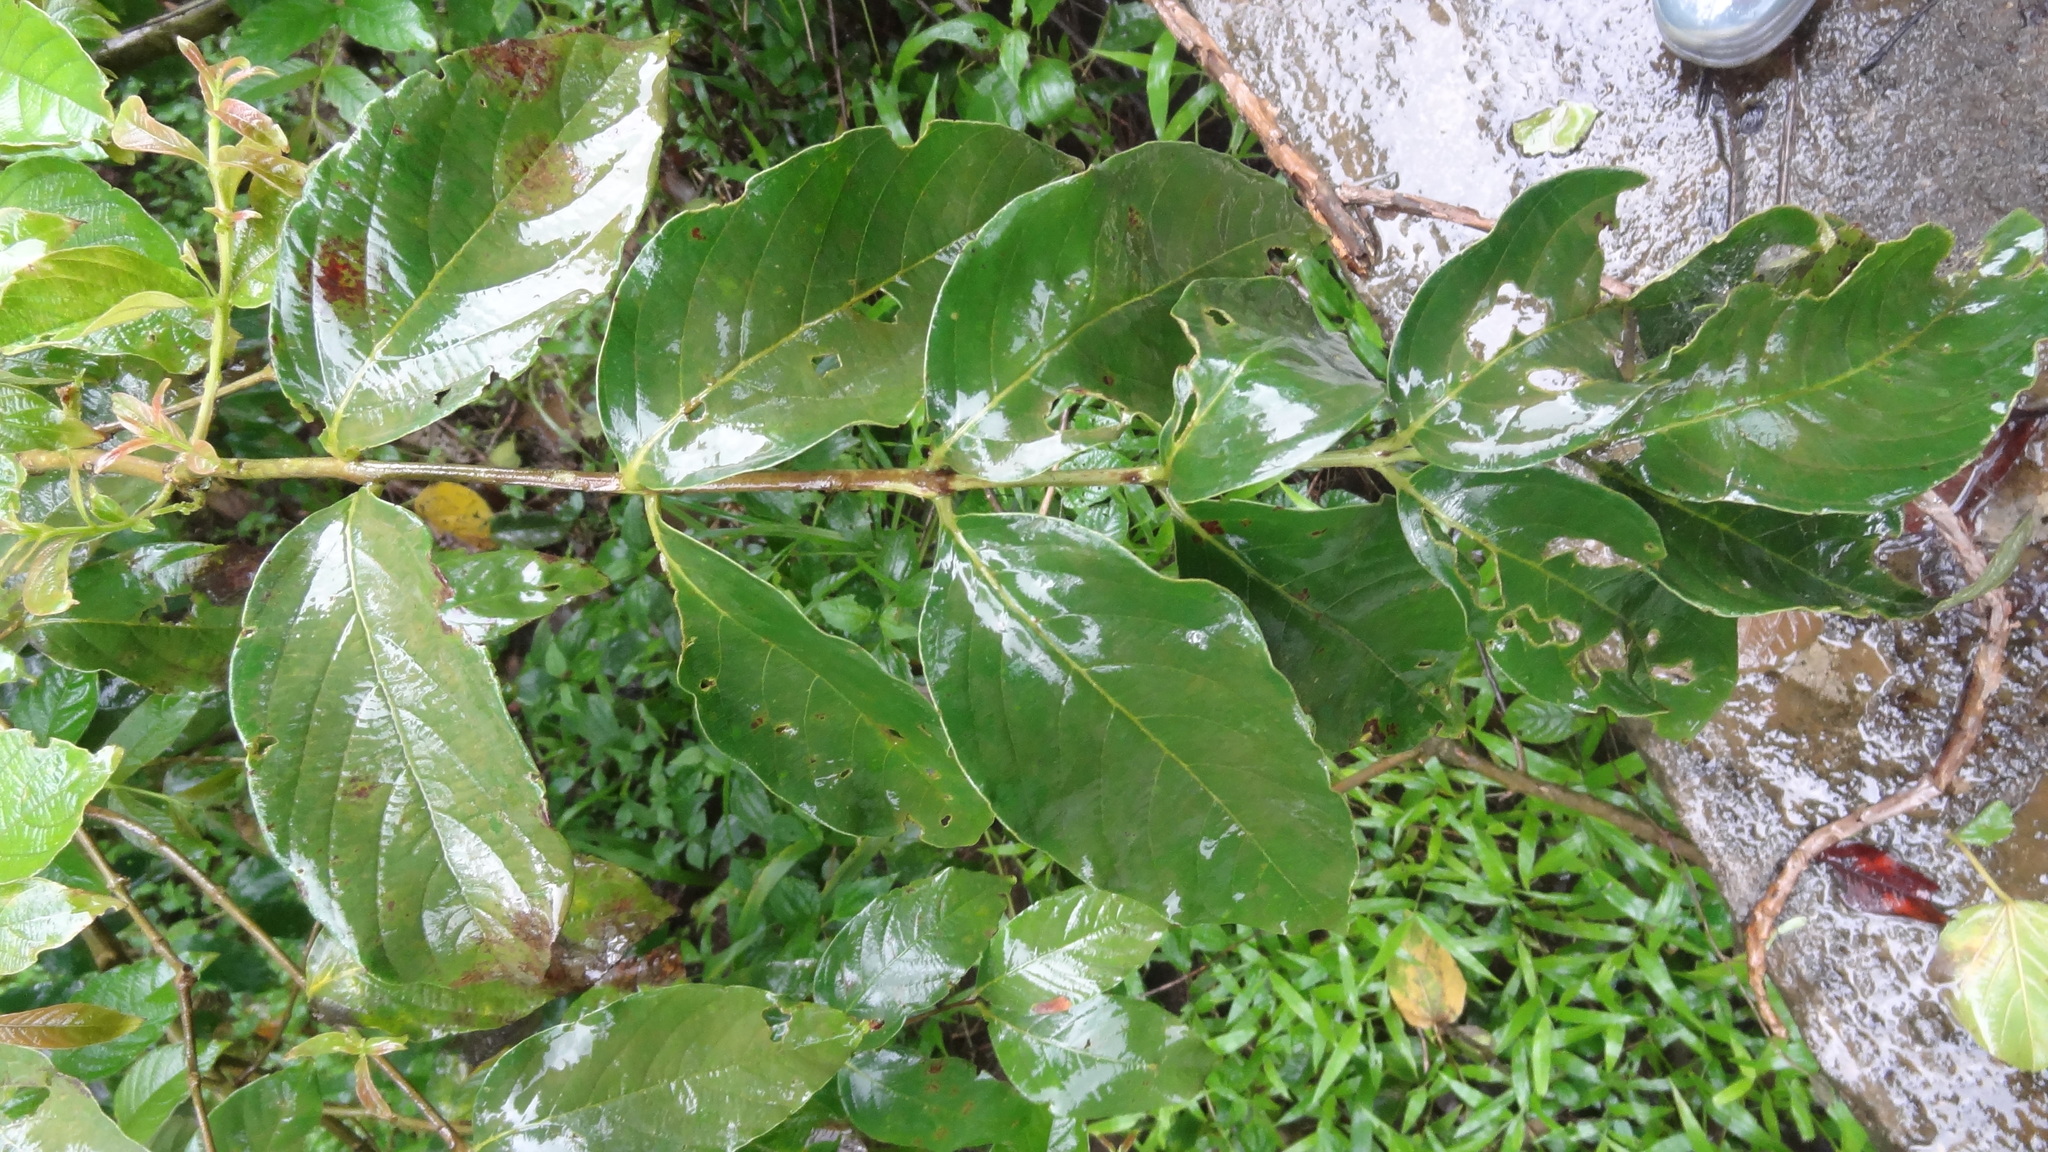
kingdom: Plantae
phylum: Tracheophyta
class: Magnoliopsida
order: Myrtales
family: Lythraceae
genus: Lagerstroemia
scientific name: Lagerstroemia microcarpa
